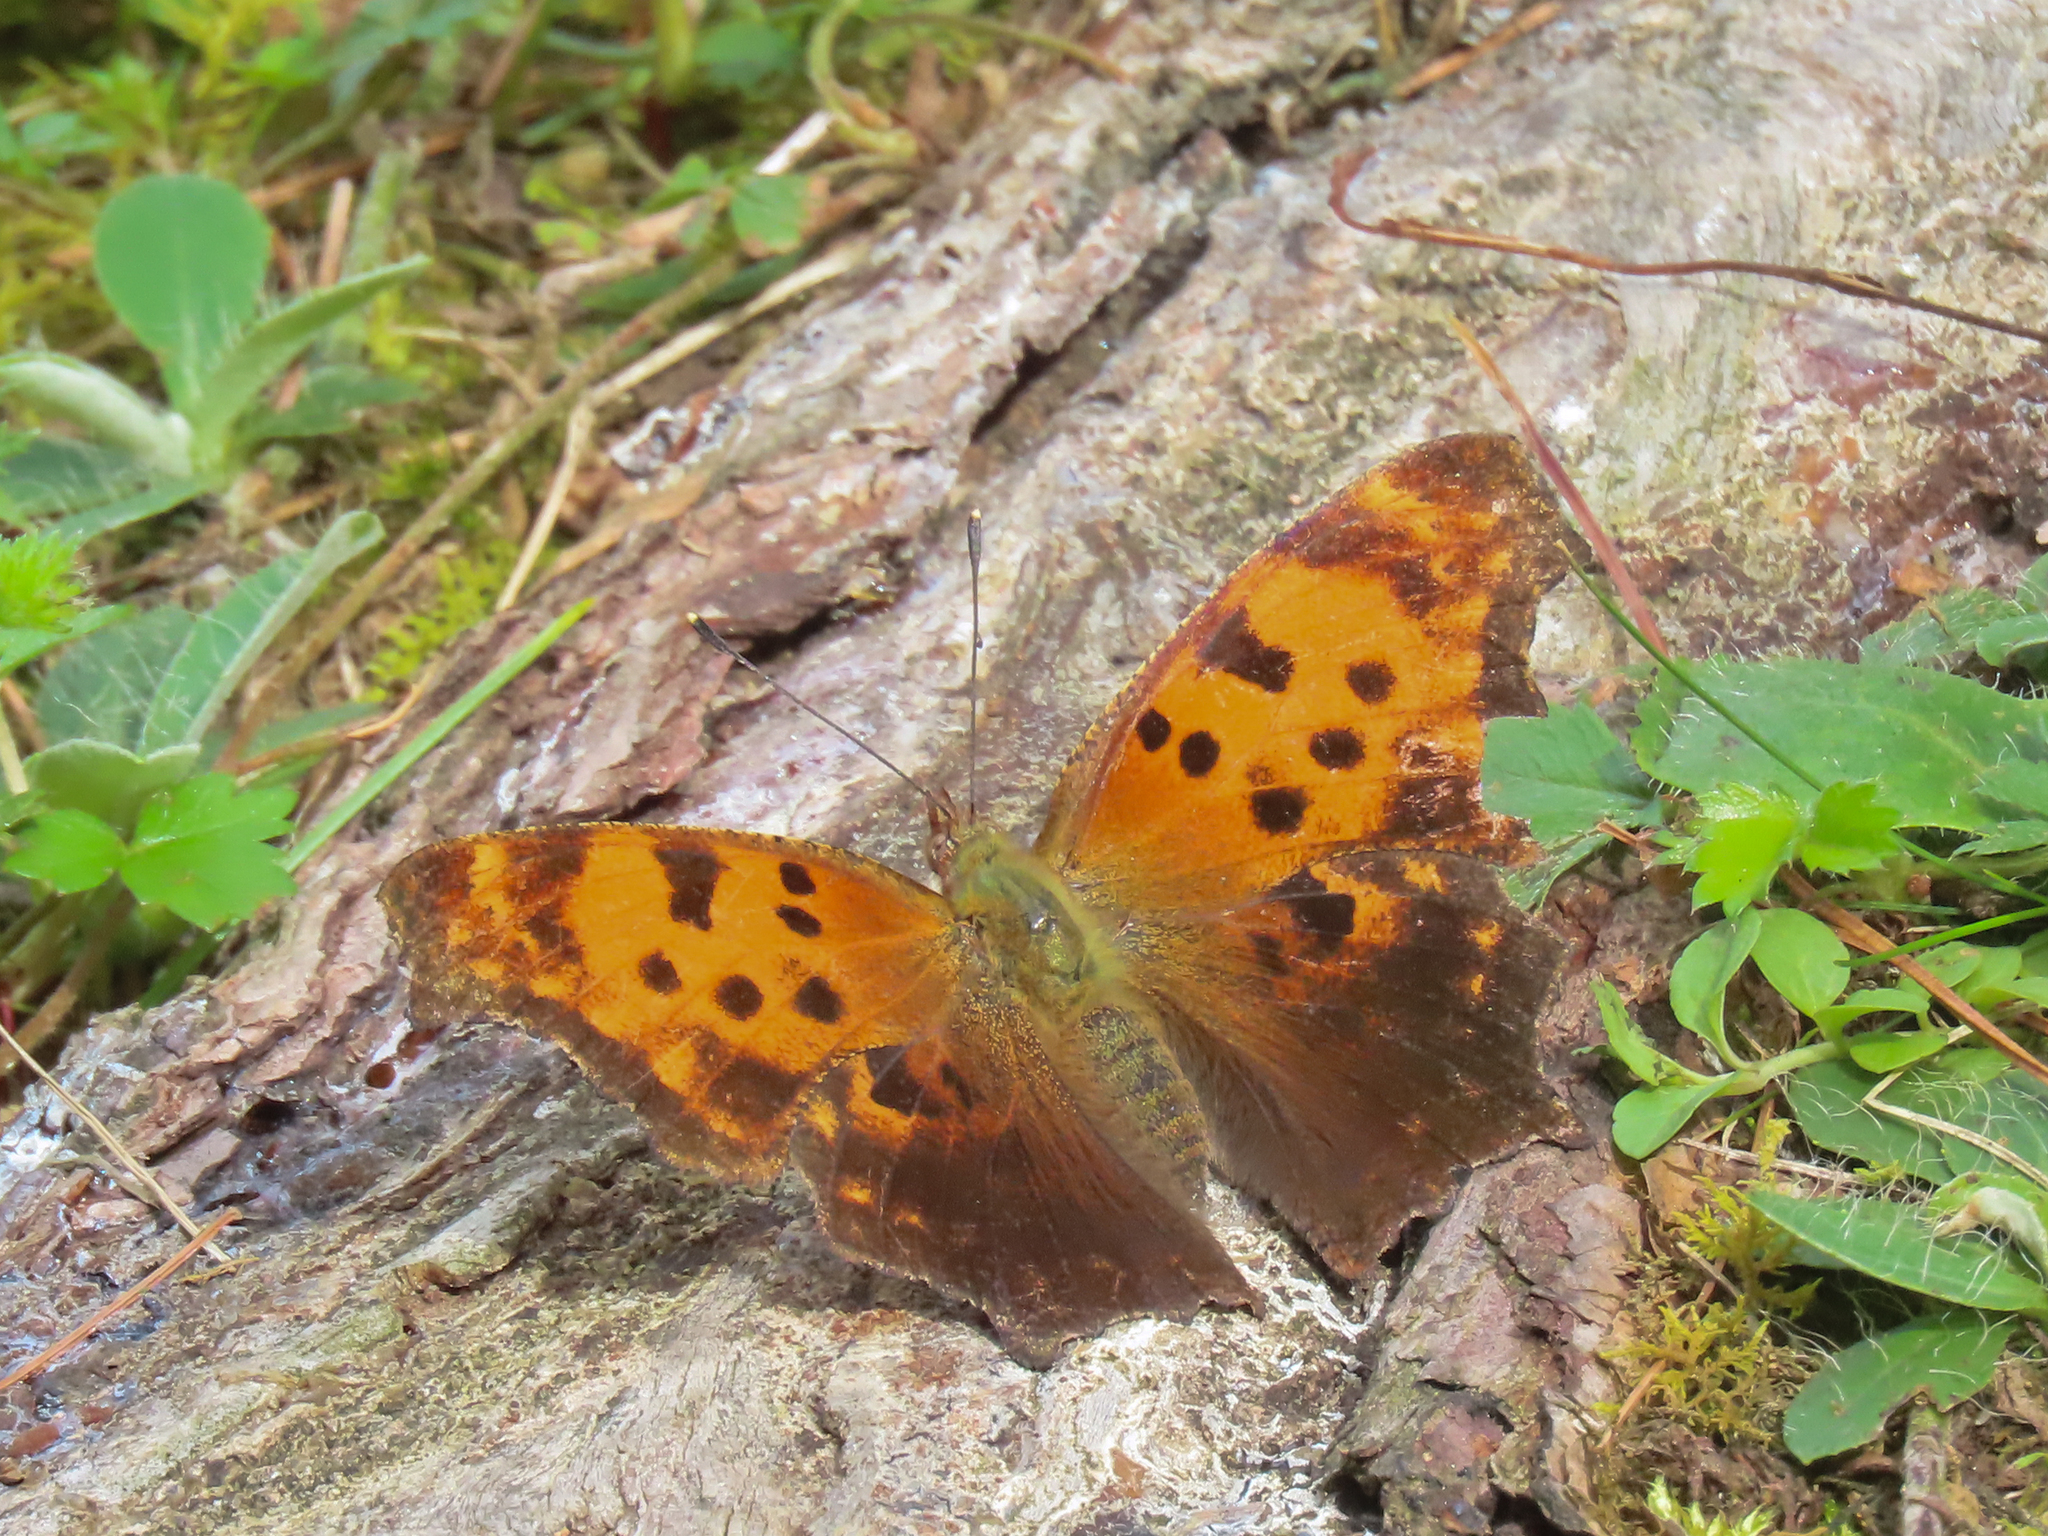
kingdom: Animalia
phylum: Arthropoda
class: Insecta
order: Lepidoptera
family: Nymphalidae
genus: Polygonia
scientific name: Polygonia comma
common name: Eastern comma
